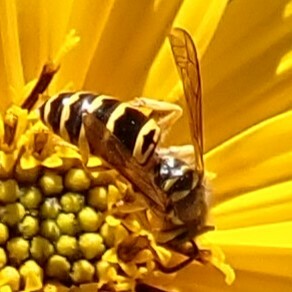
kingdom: Animalia
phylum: Arthropoda
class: Insecta
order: Hymenoptera
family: Vespidae
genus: Vespula
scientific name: Vespula maculifrons
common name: Eastern yellowjacket
